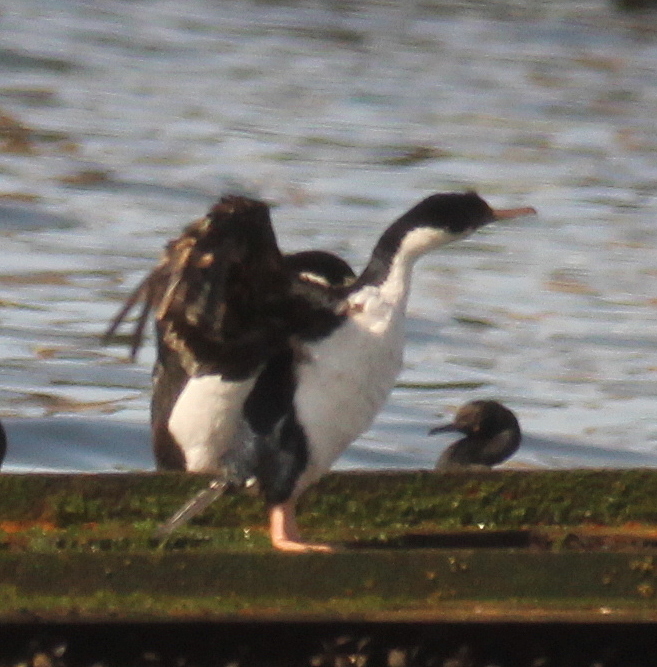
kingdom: Animalia
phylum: Chordata
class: Aves
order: Suliformes
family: Phalacrocoracidae
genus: Leucocarbo
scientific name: Leucocarbo atriceps
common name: Imperial shag
